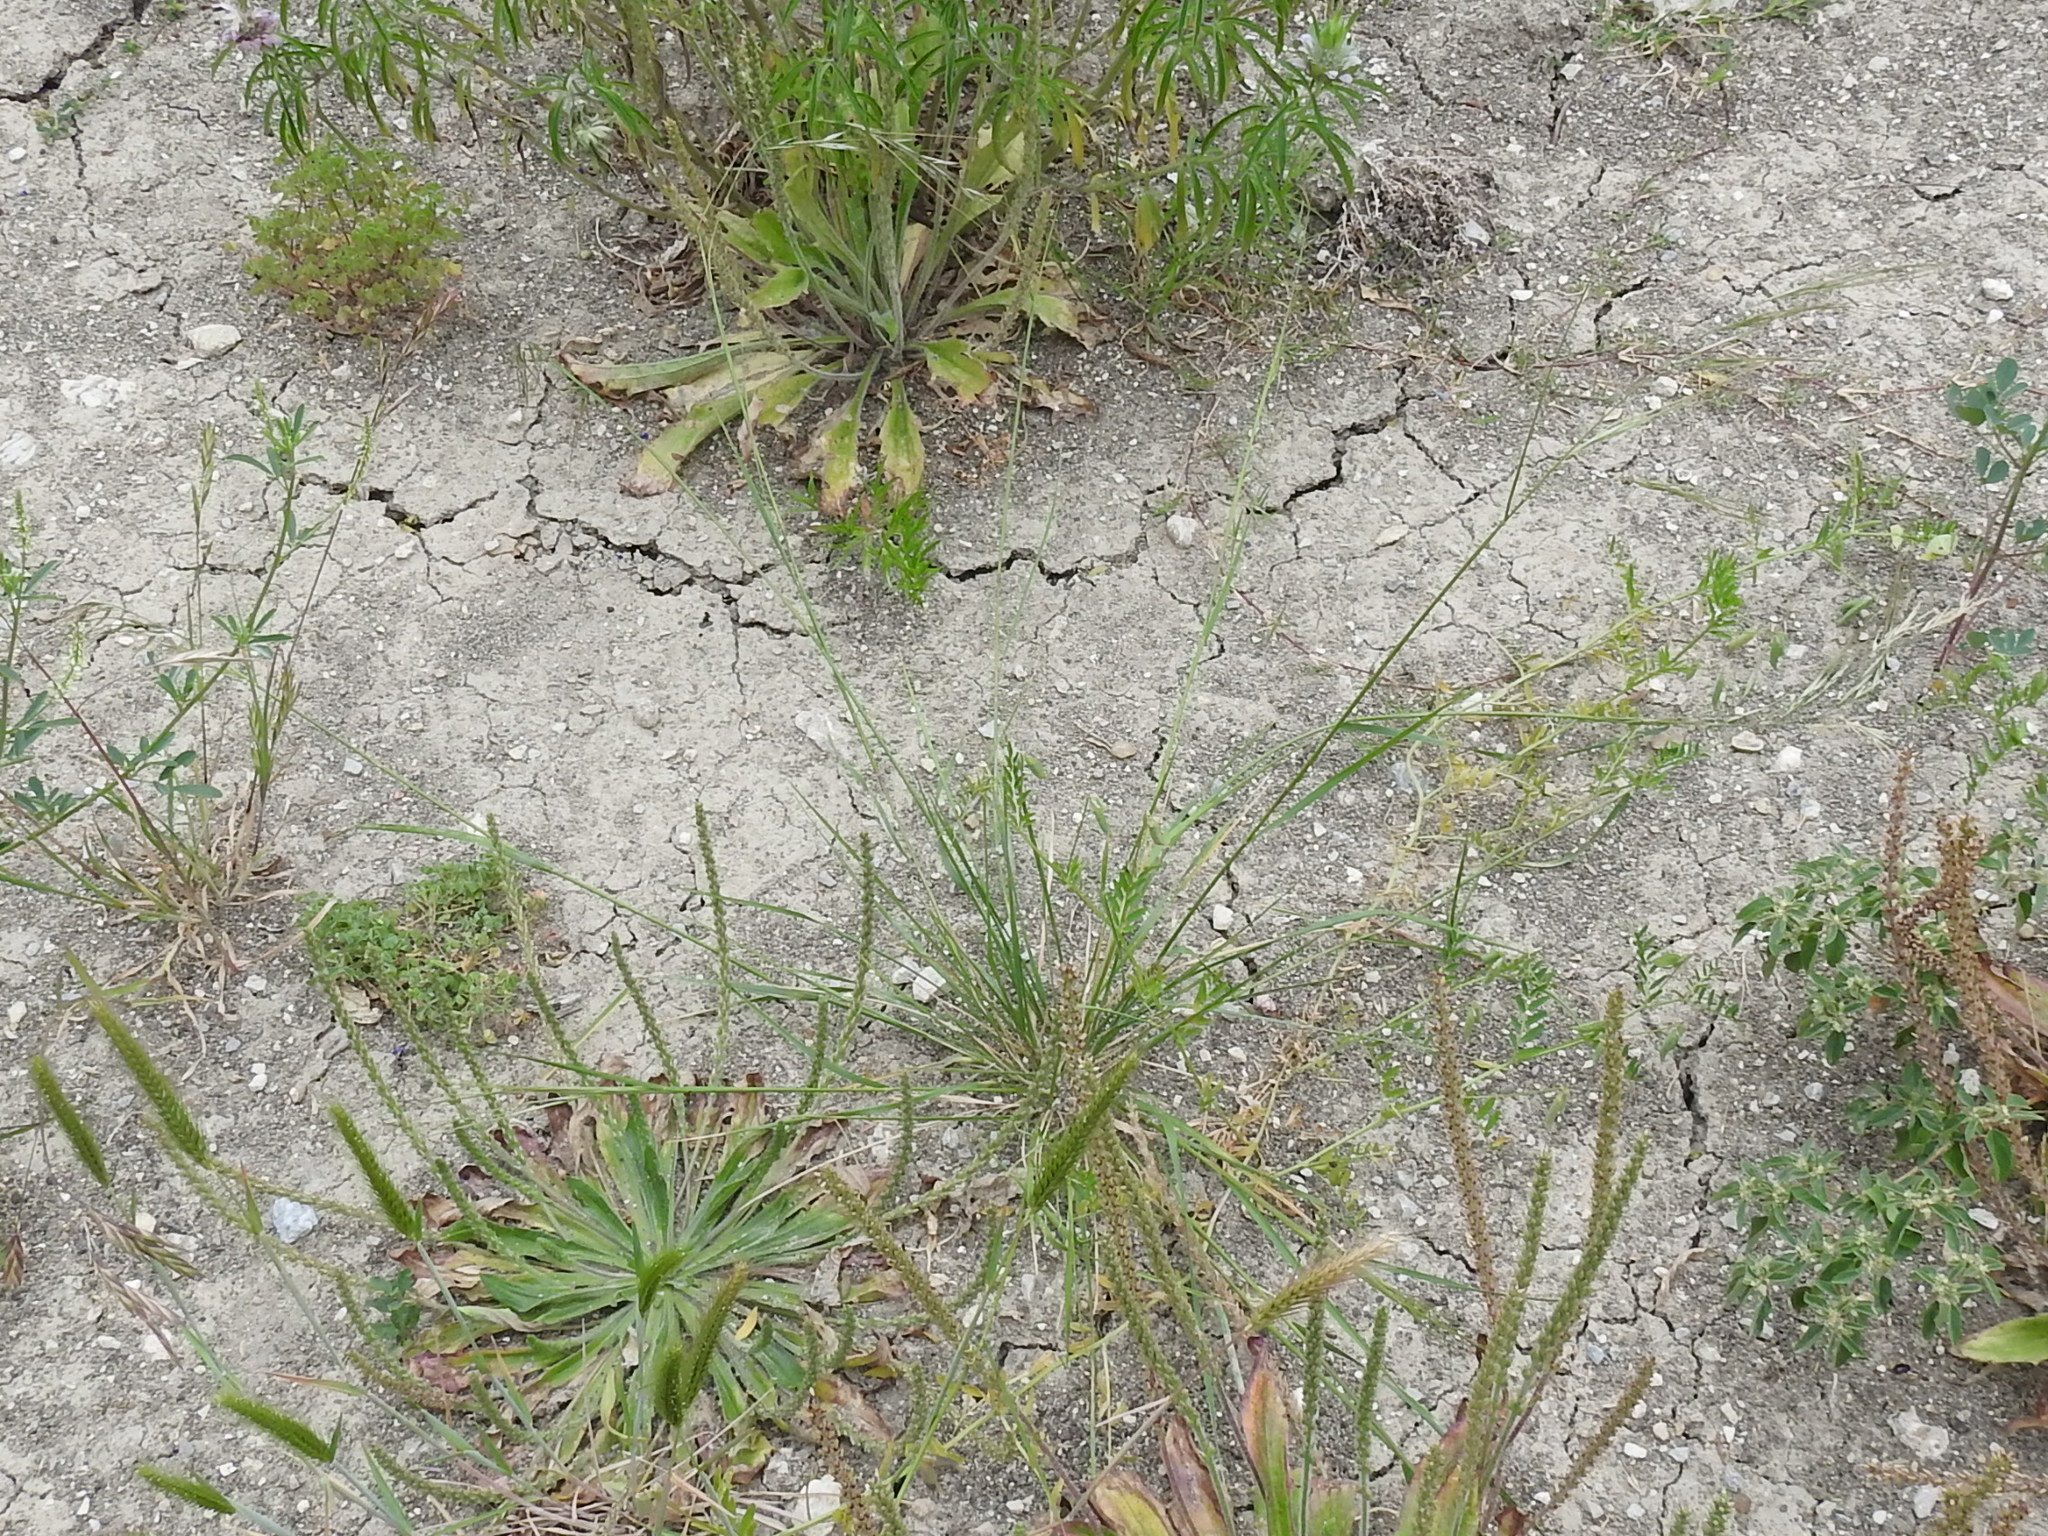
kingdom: Plantae
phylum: Tracheophyta
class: Liliopsida
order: Poales
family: Poaceae
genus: Nassella
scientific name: Nassella leucotricha
